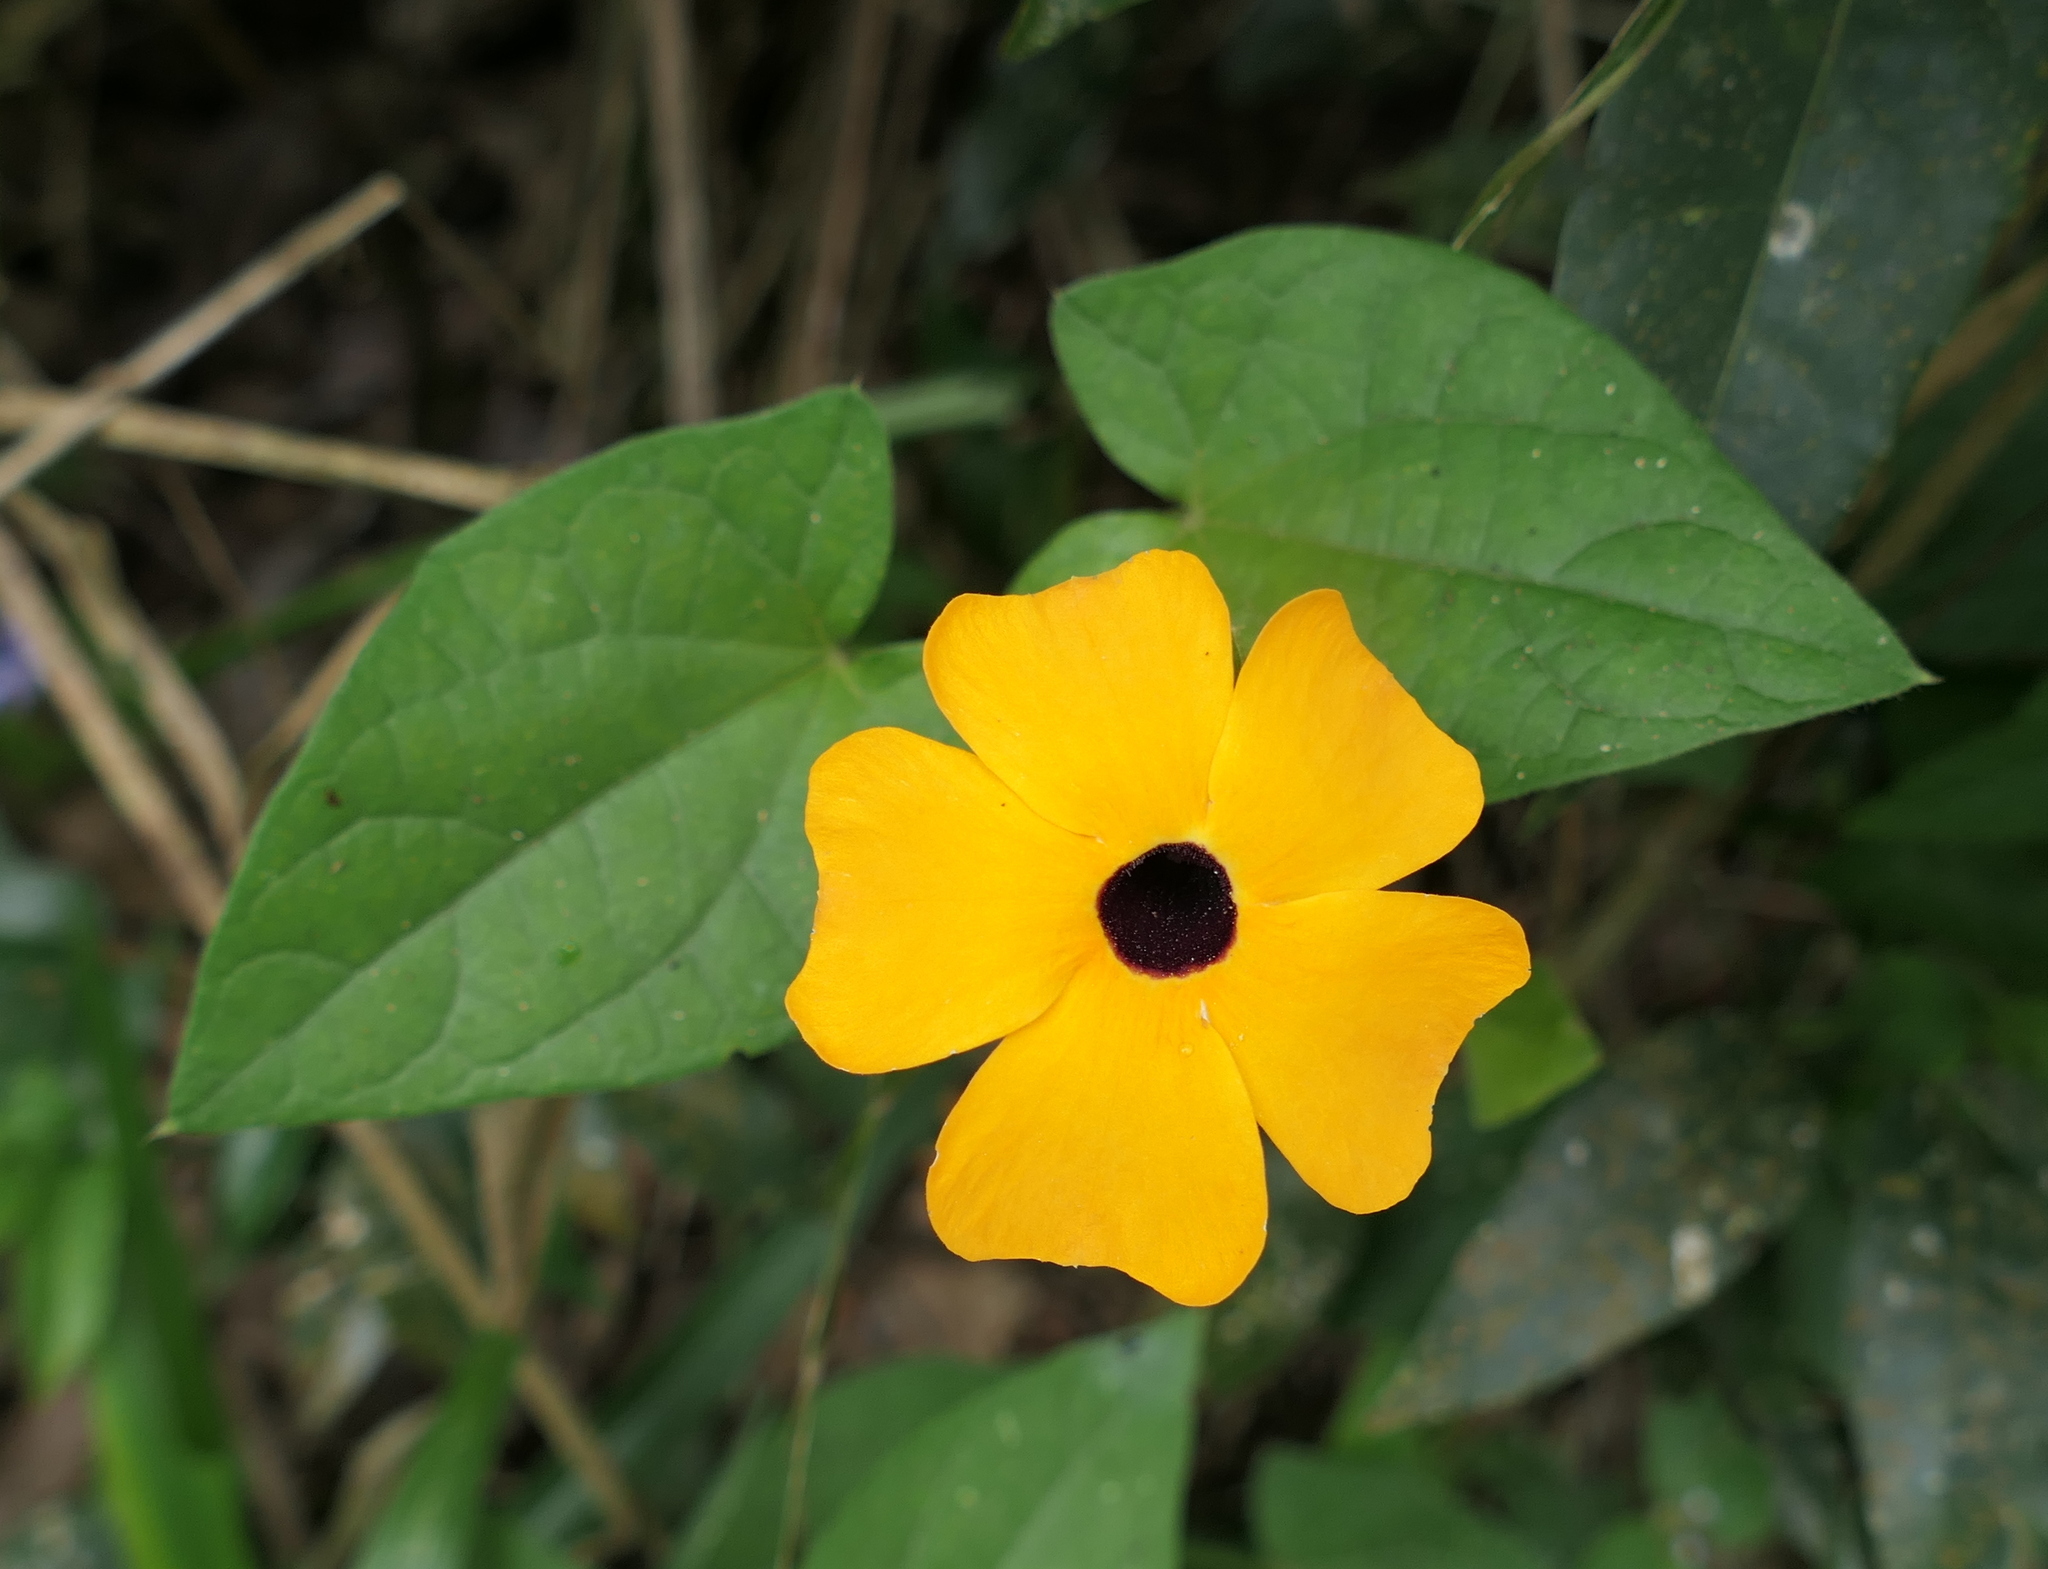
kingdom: Plantae
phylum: Tracheophyta
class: Magnoliopsida
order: Lamiales
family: Acanthaceae
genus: Thunbergia
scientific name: Thunbergia alata
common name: Blackeyed susan vine
